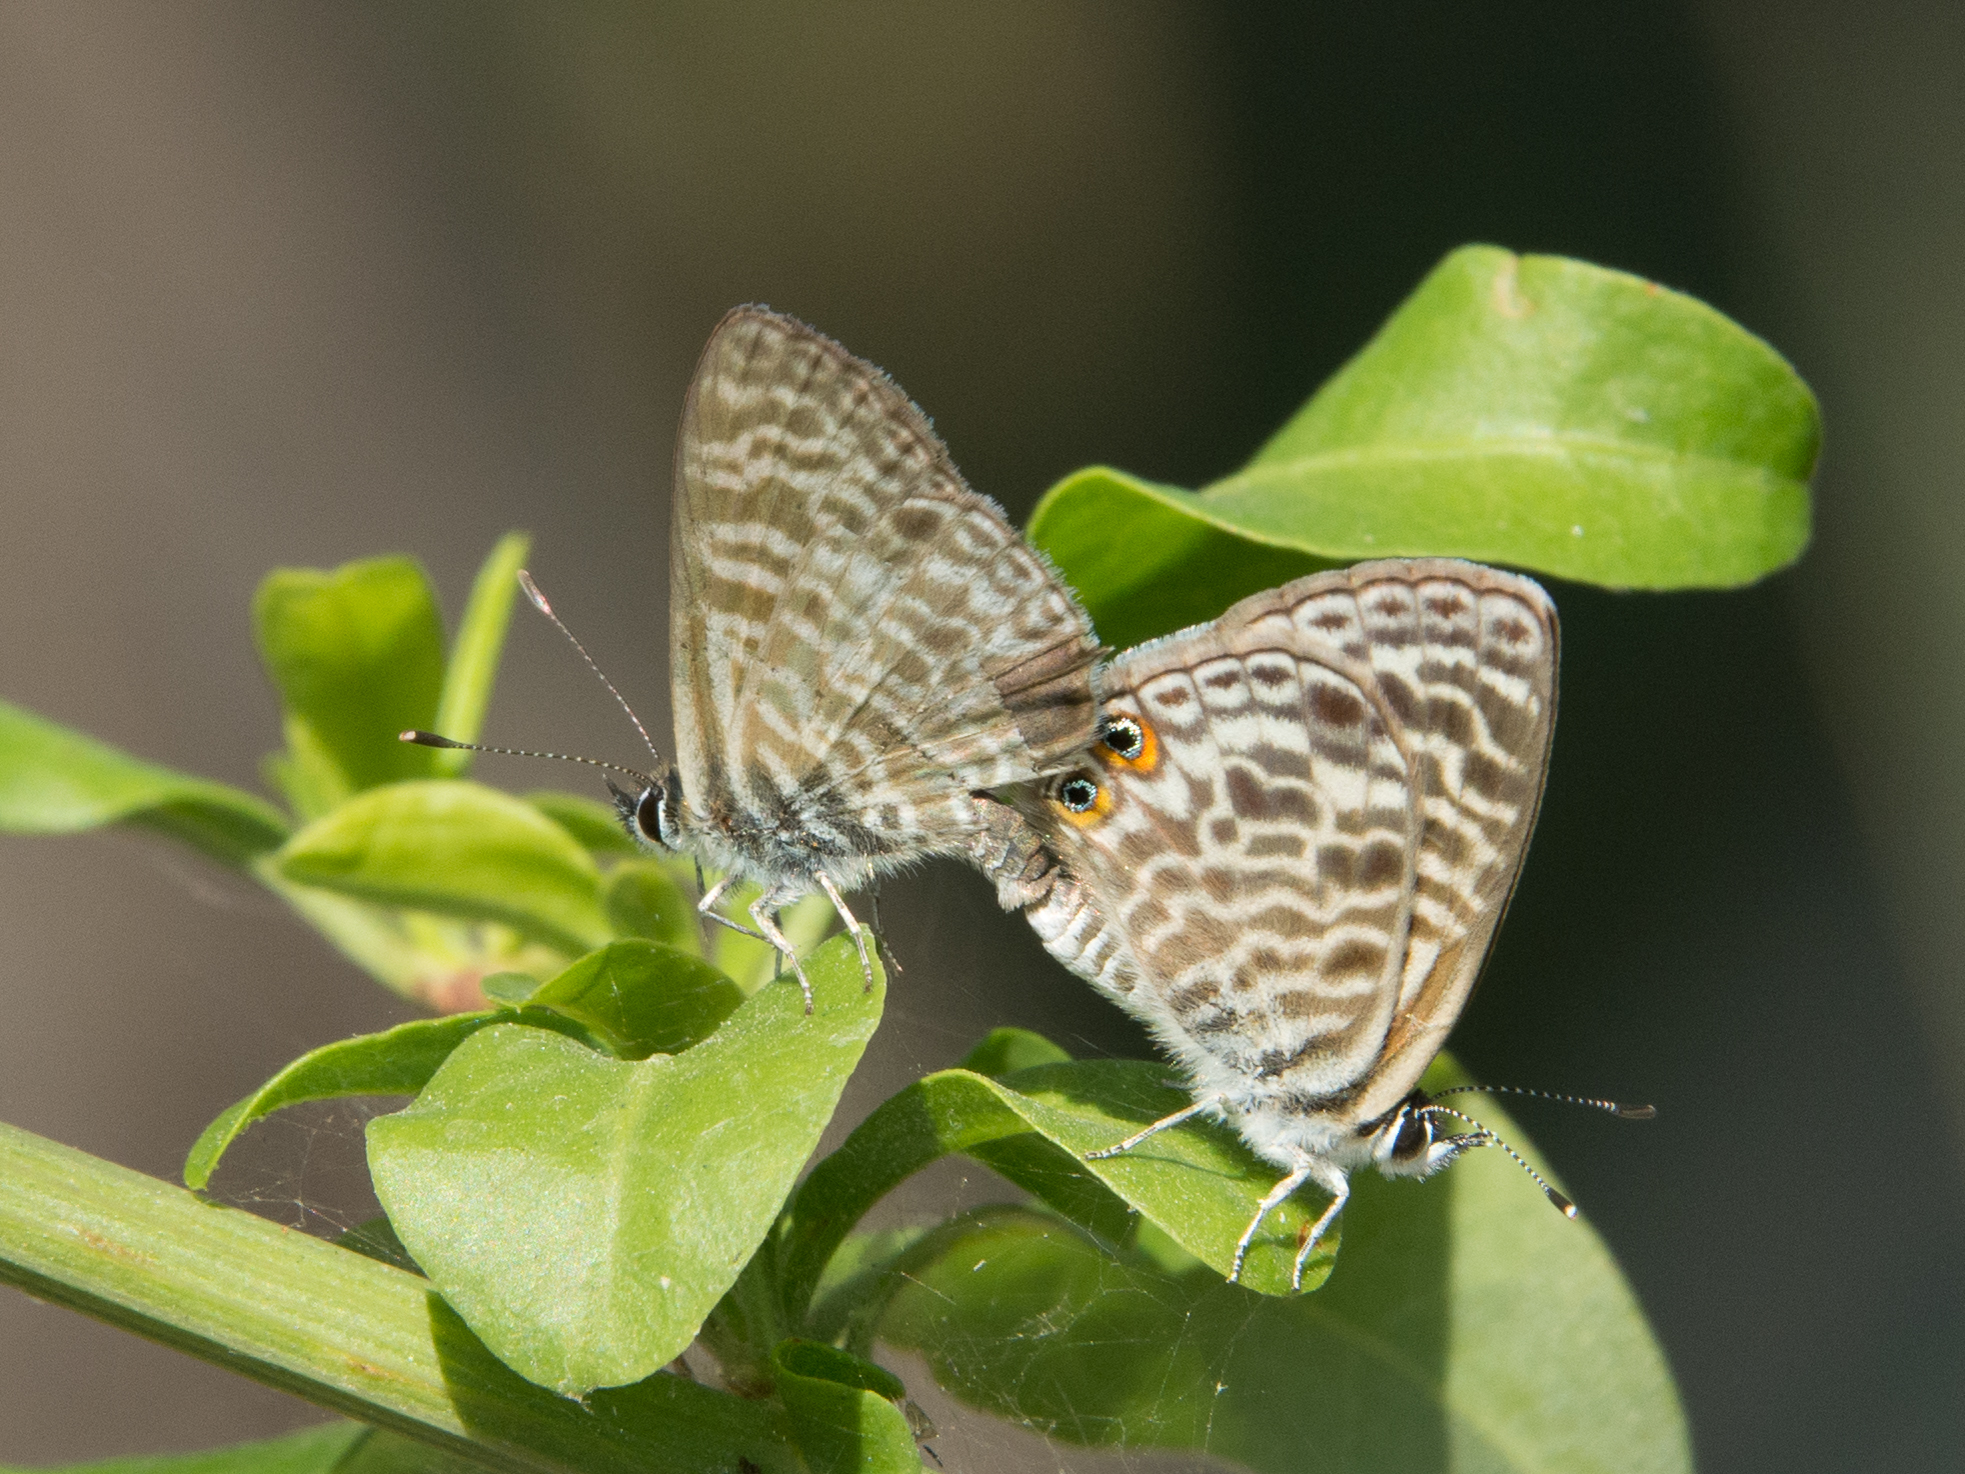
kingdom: Animalia
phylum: Arthropoda
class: Insecta
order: Lepidoptera
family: Lycaenidae
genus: Leptotes
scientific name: Leptotes pirithous
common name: Lang's short-tailed blue
